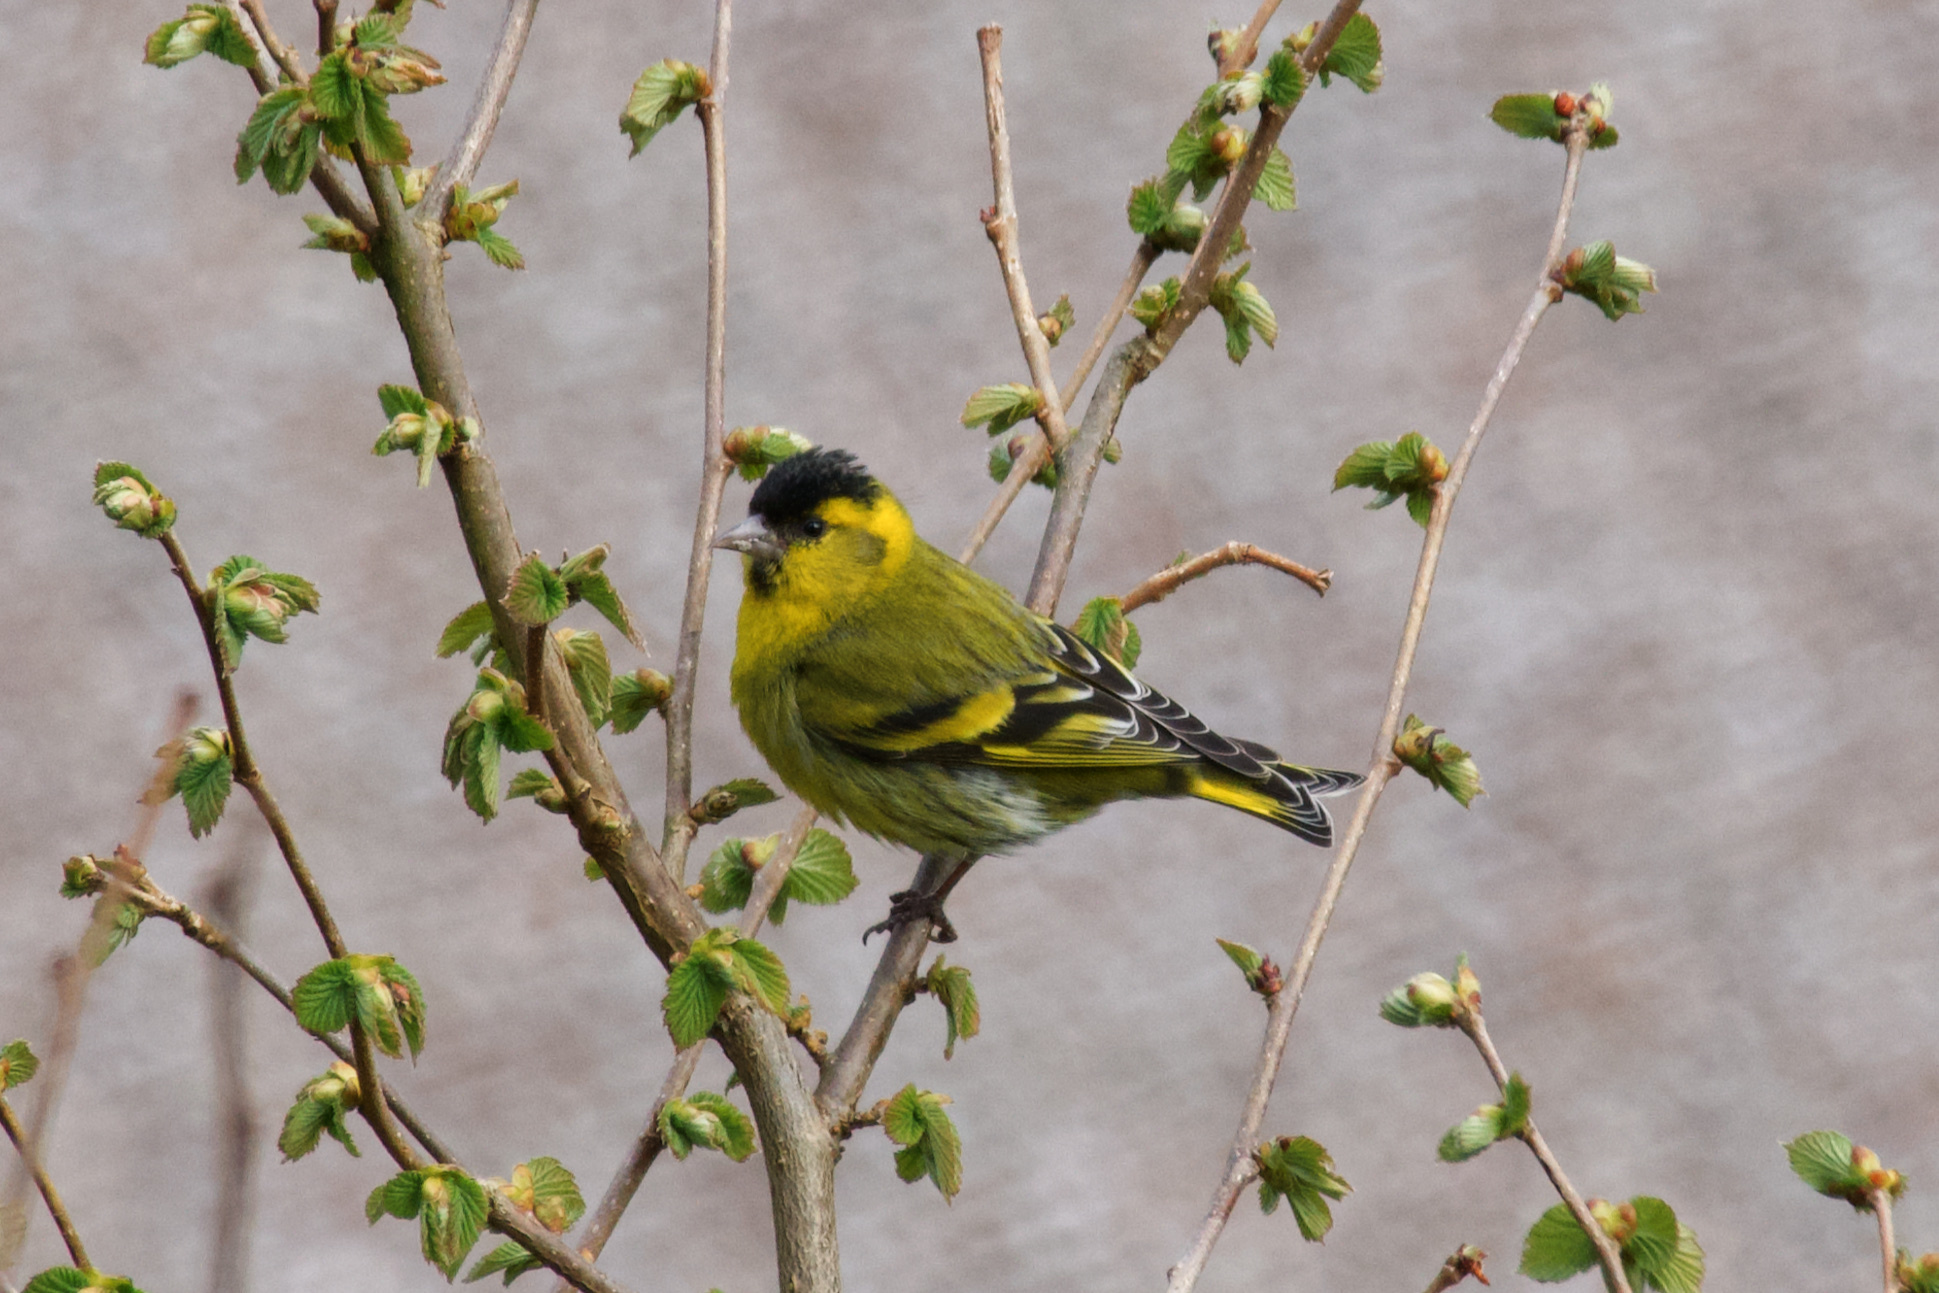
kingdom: Animalia
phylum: Chordata
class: Aves
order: Passeriformes
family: Fringillidae
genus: Spinus
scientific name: Spinus spinus
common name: Eurasian siskin
